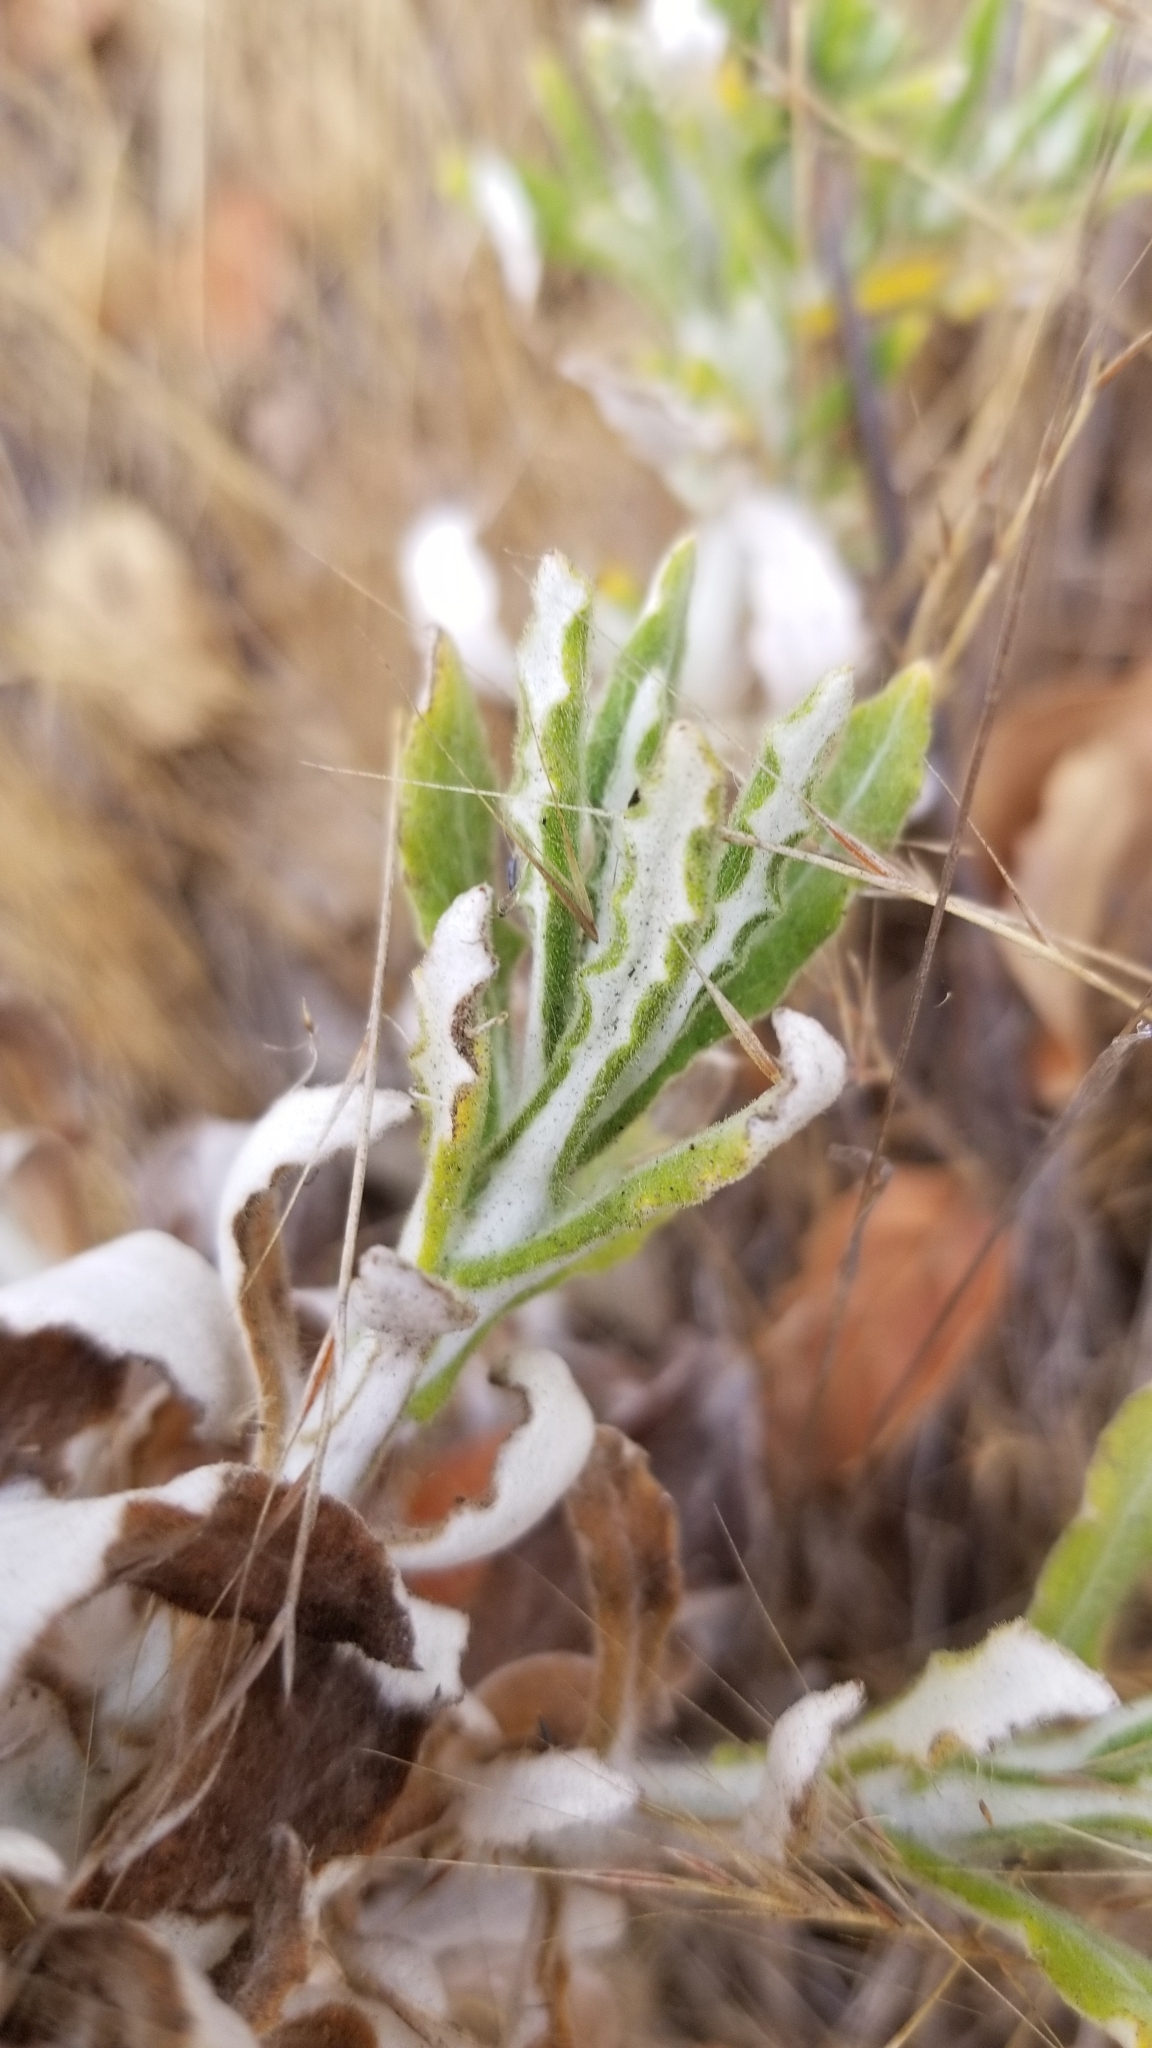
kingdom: Plantae
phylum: Tracheophyta
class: Magnoliopsida
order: Asterales
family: Asteraceae
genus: Pseudognaphalium
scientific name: Pseudognaphalium biolettii
